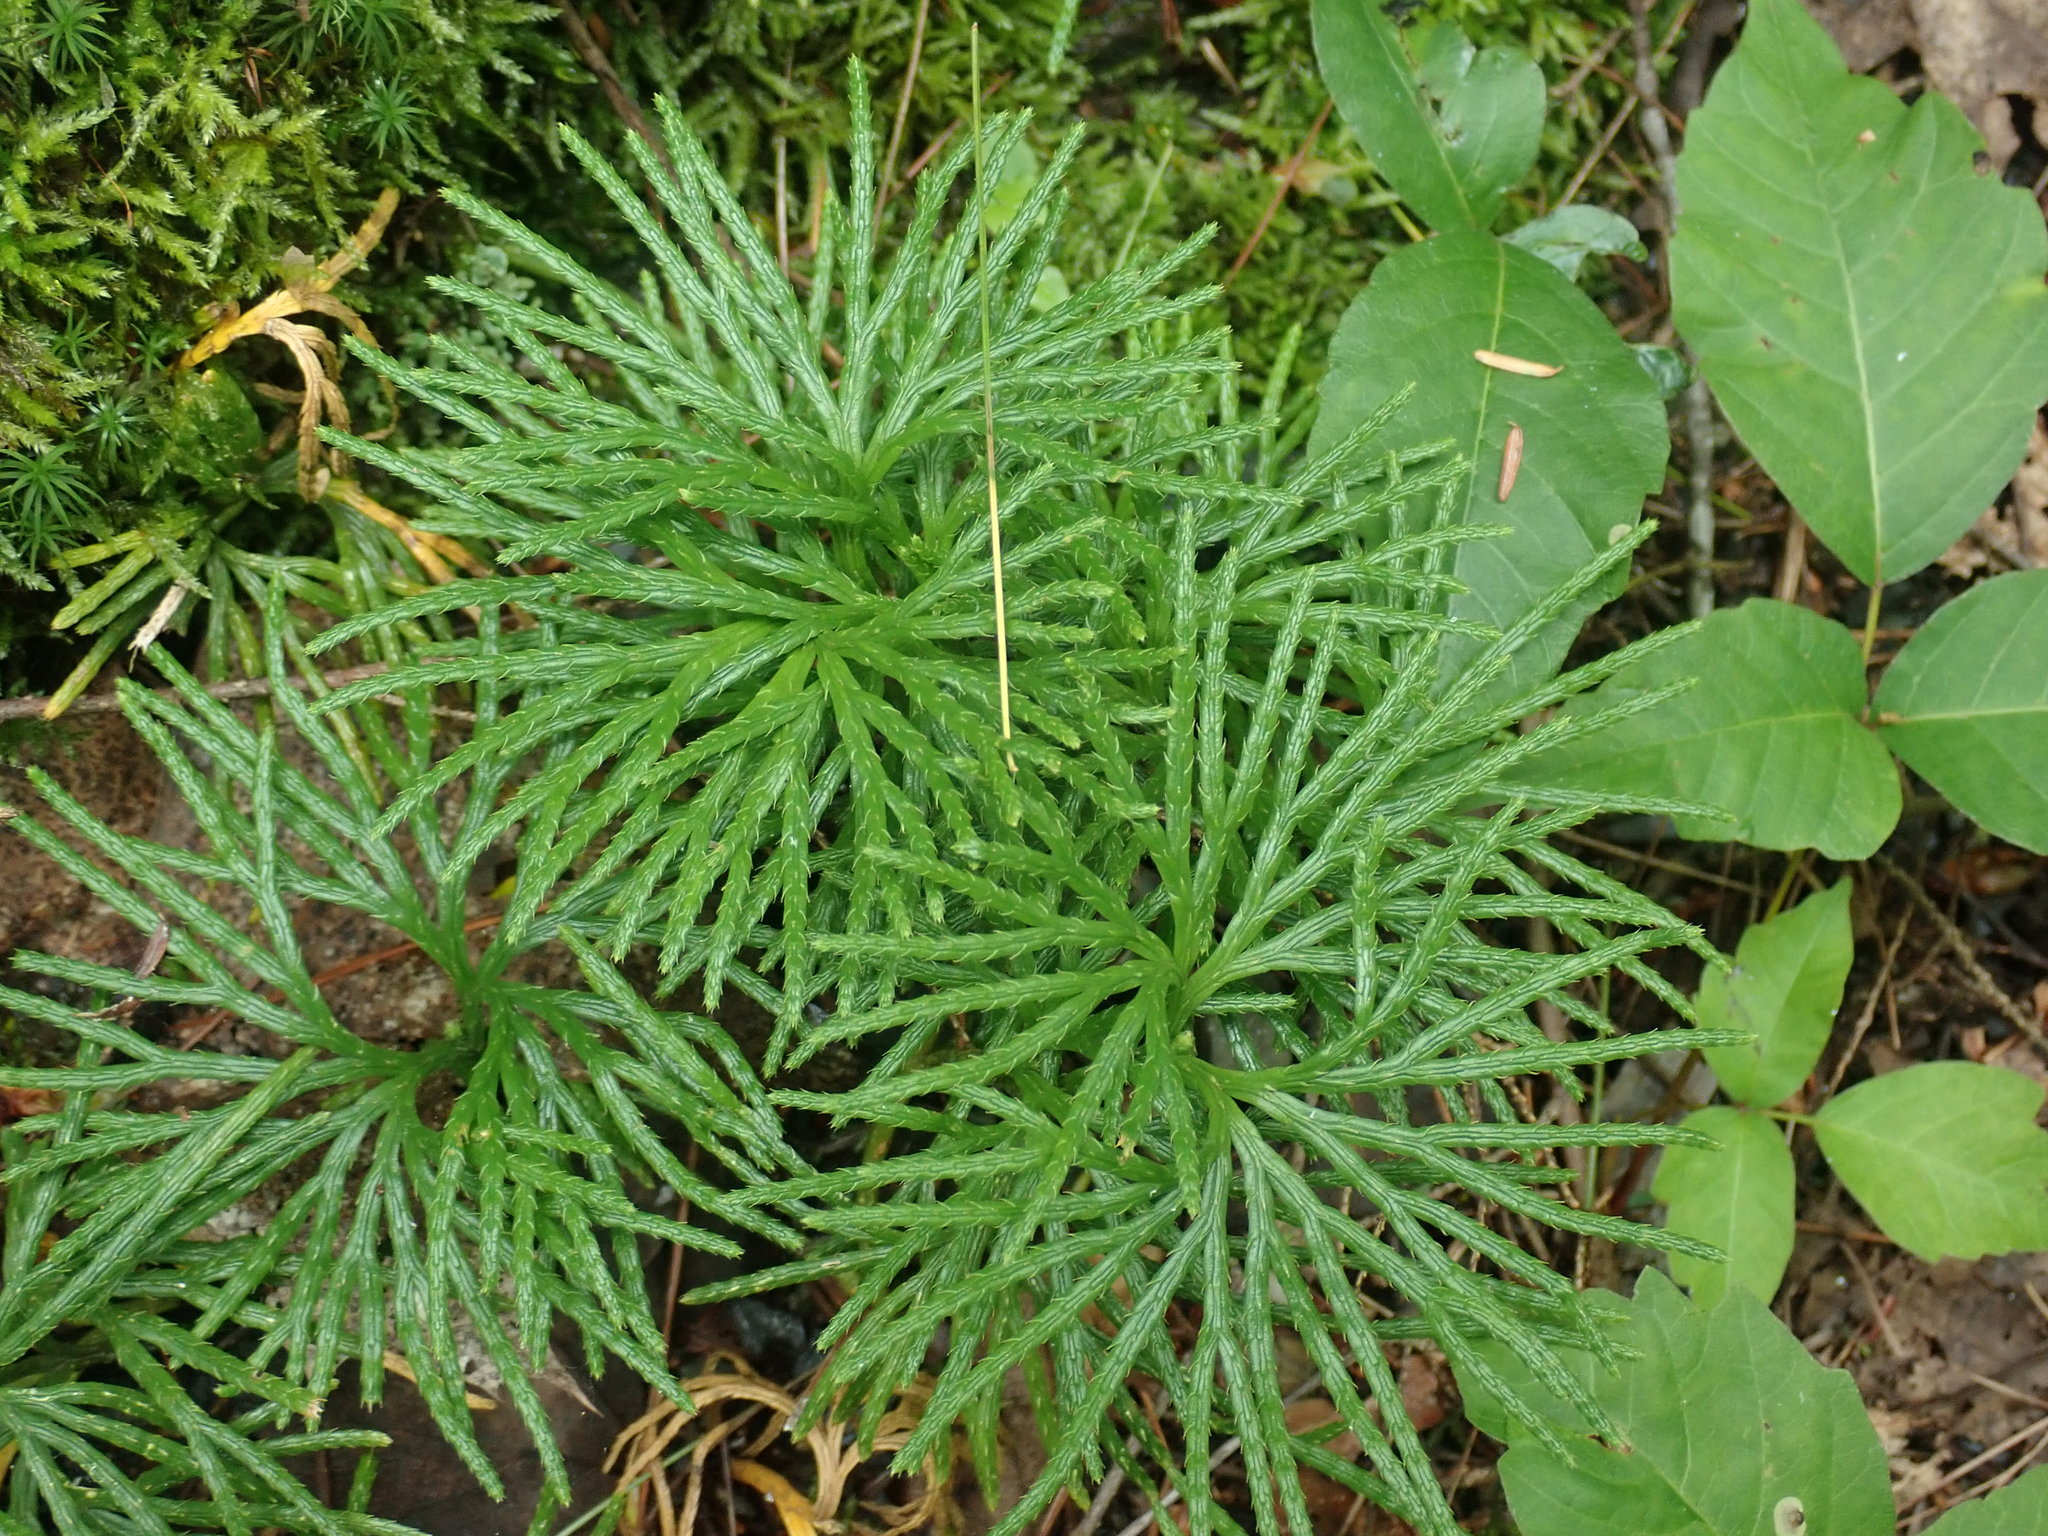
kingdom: Plantae
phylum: Tracheophyta
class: Lycopodiopsida
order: Lycopodiales
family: Lycopodiaceae
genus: Diphasiastrum
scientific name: Diphasiastrum digitatum
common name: Southern running-pine
